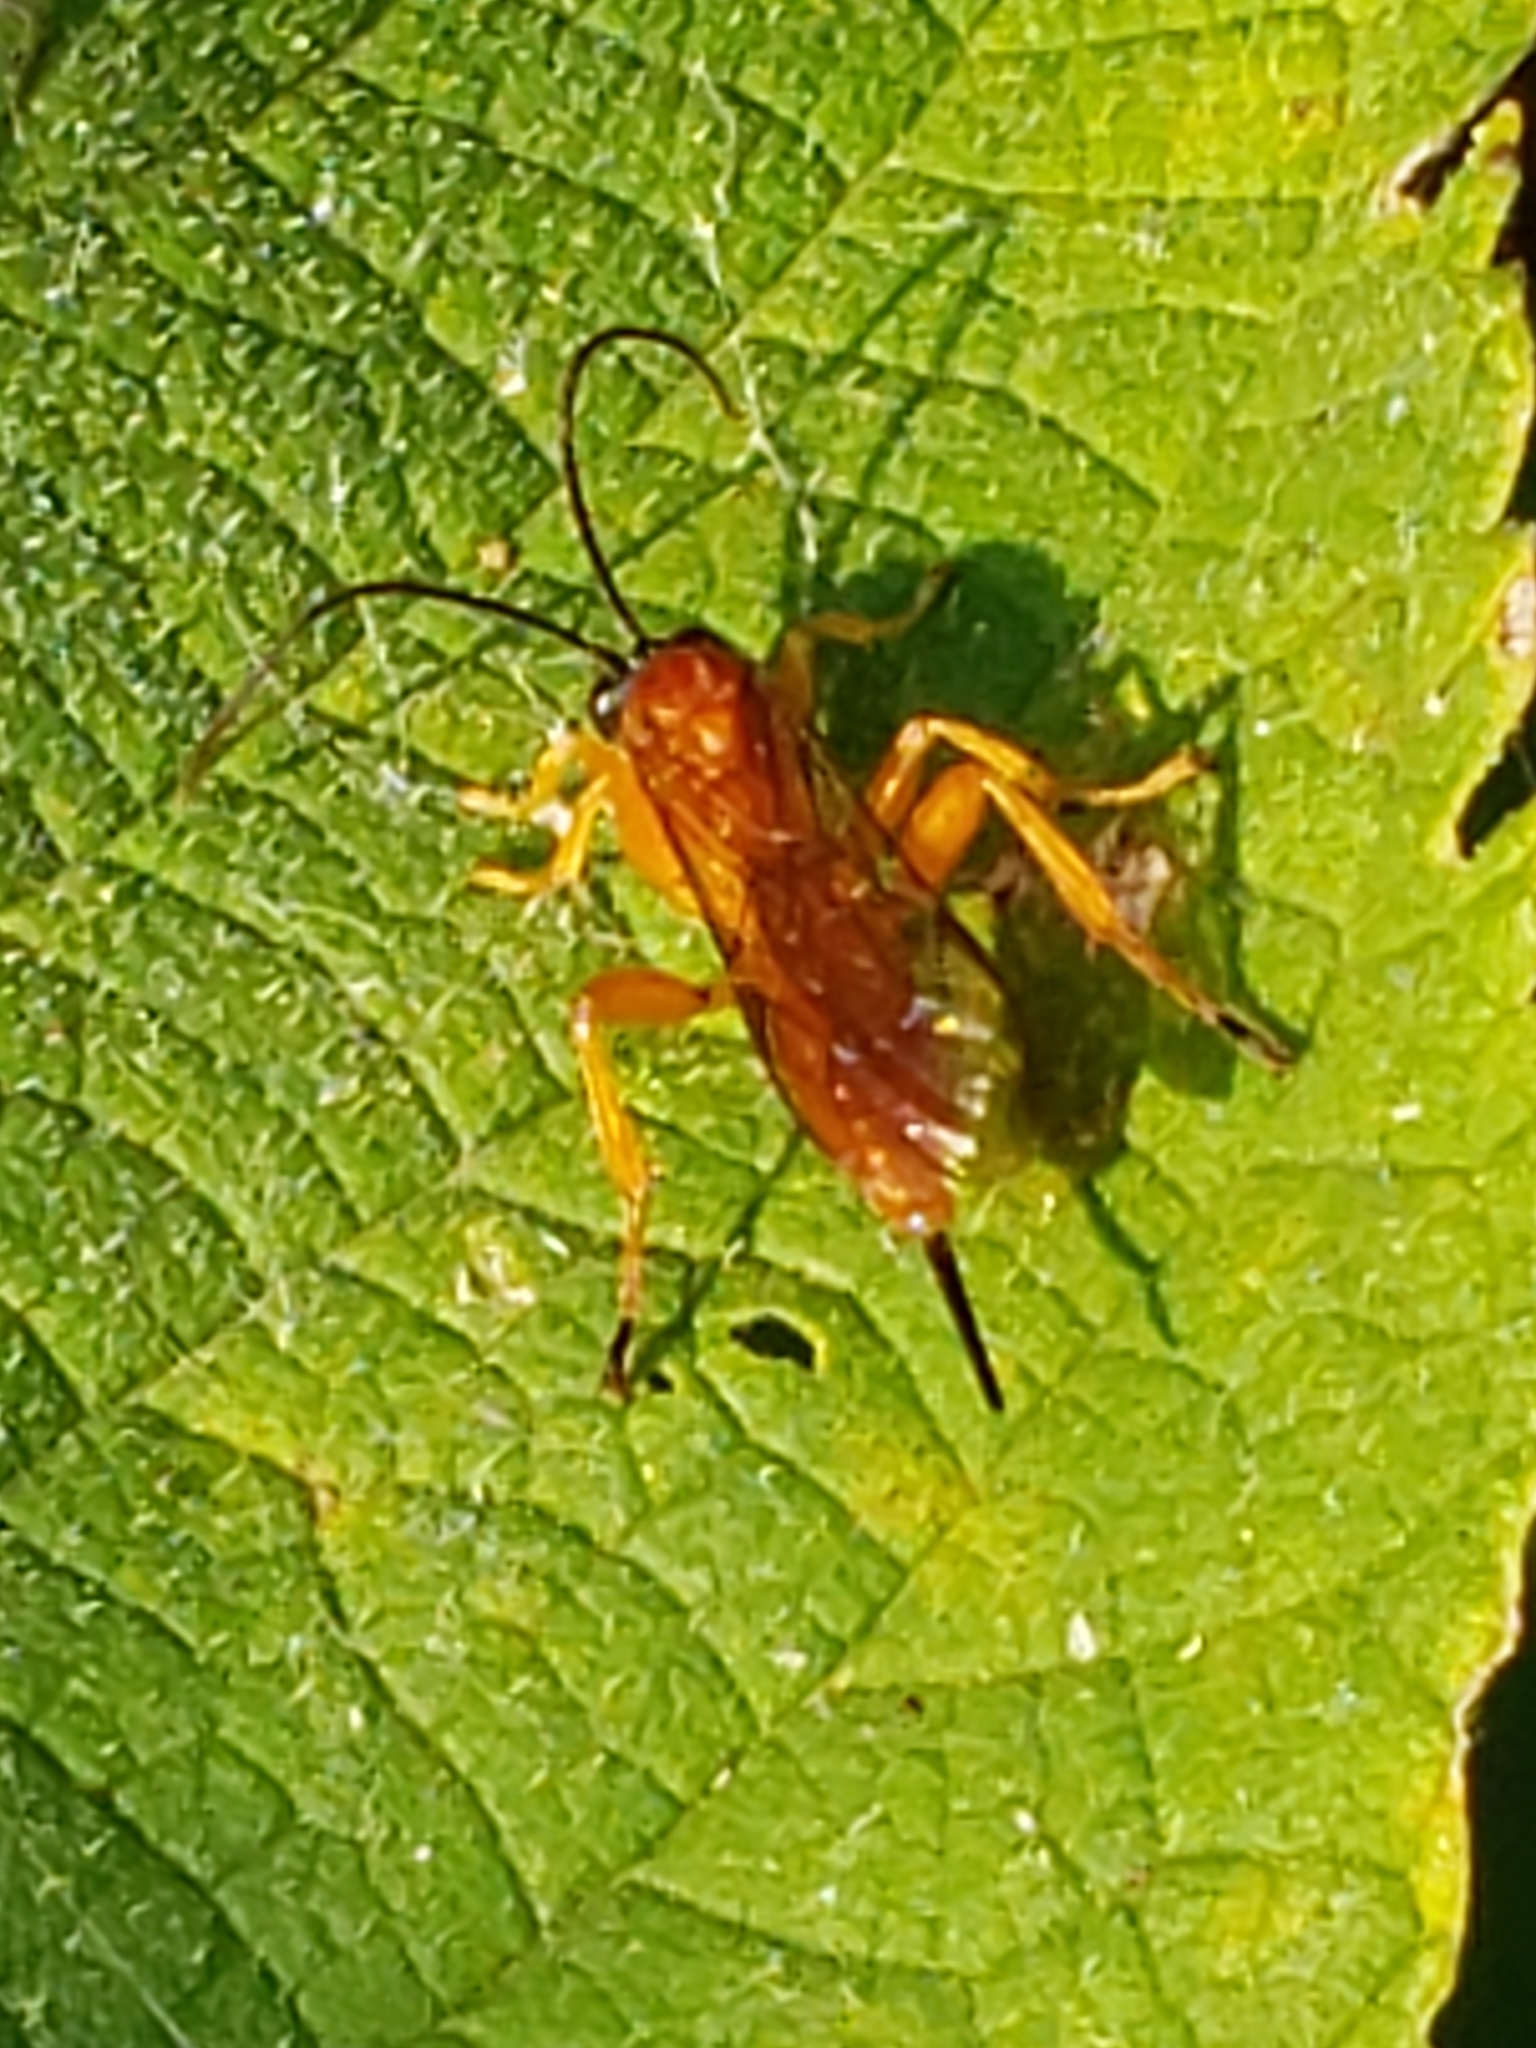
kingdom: Animalia
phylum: Arthropoda
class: Insecta
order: Hymenoptera
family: Ichneumonidae
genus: Theronia
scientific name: Theronia hilaris
